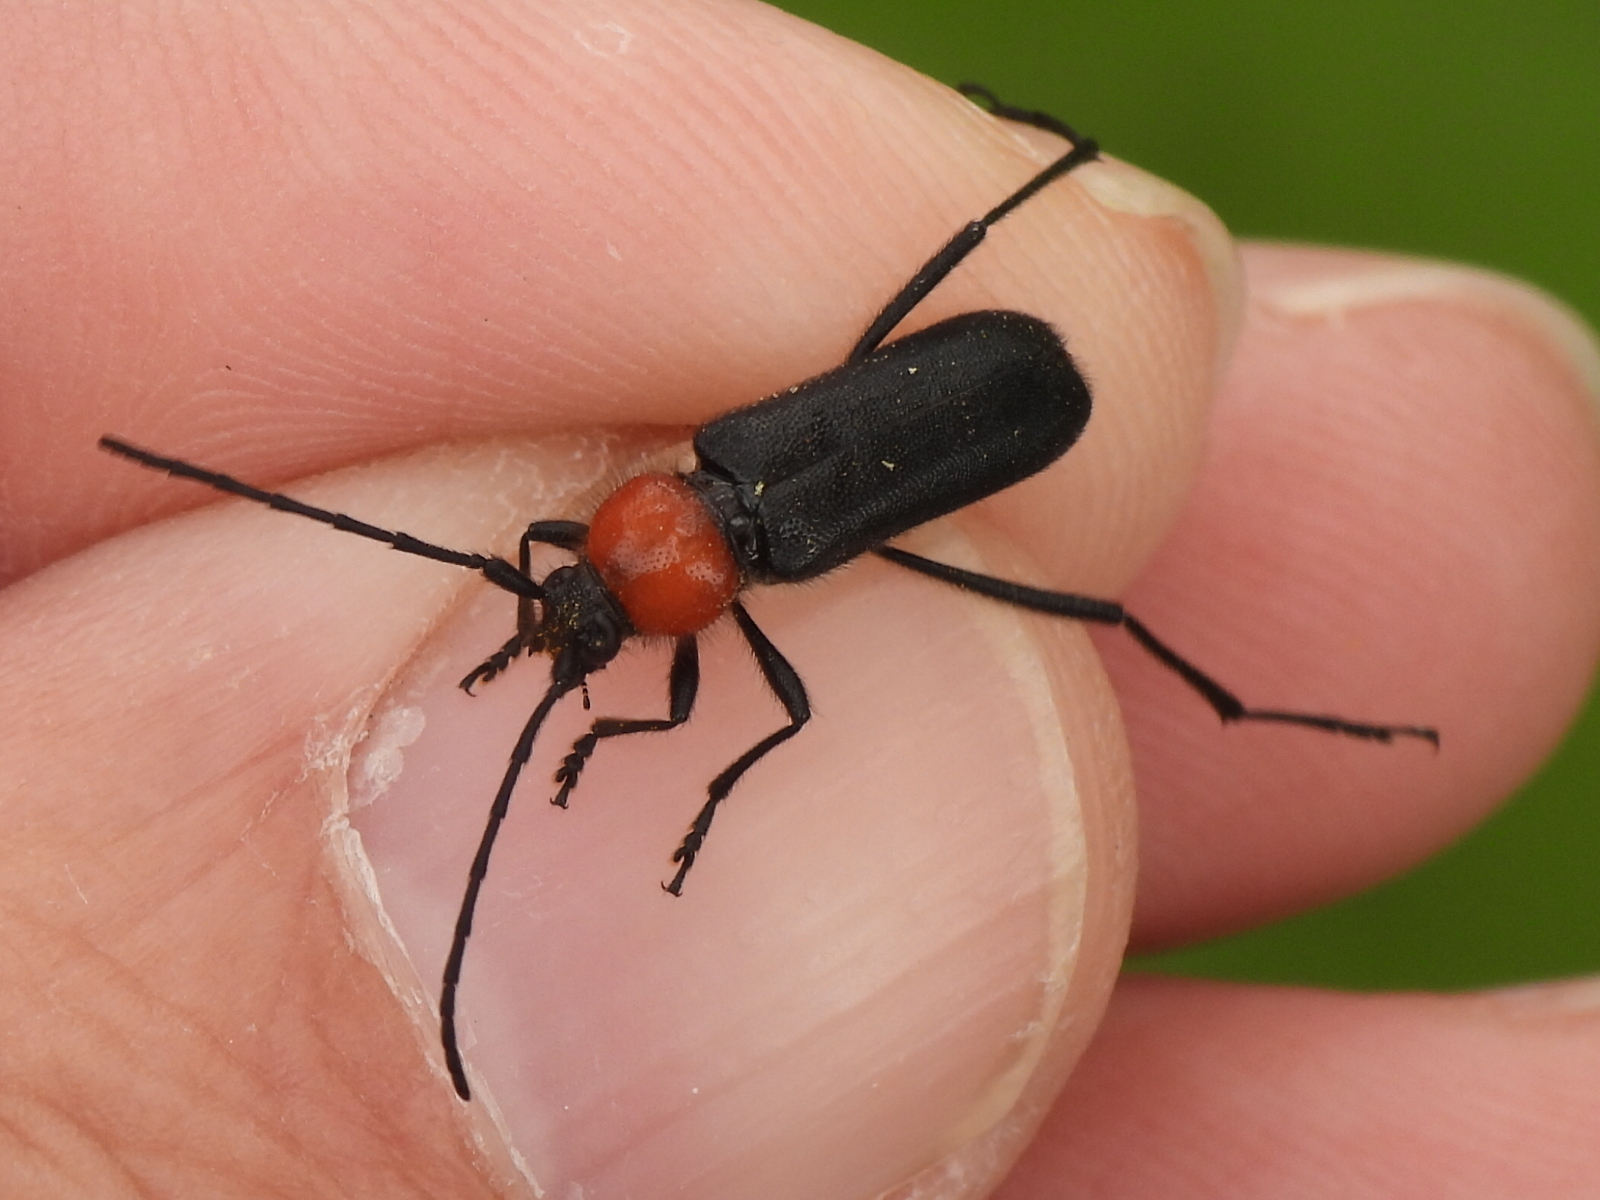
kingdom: Animalia
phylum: Arthropoda
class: Insecta
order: Coleoptera
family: Cerambycidae
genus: Batyle
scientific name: Batyle ignicollis
